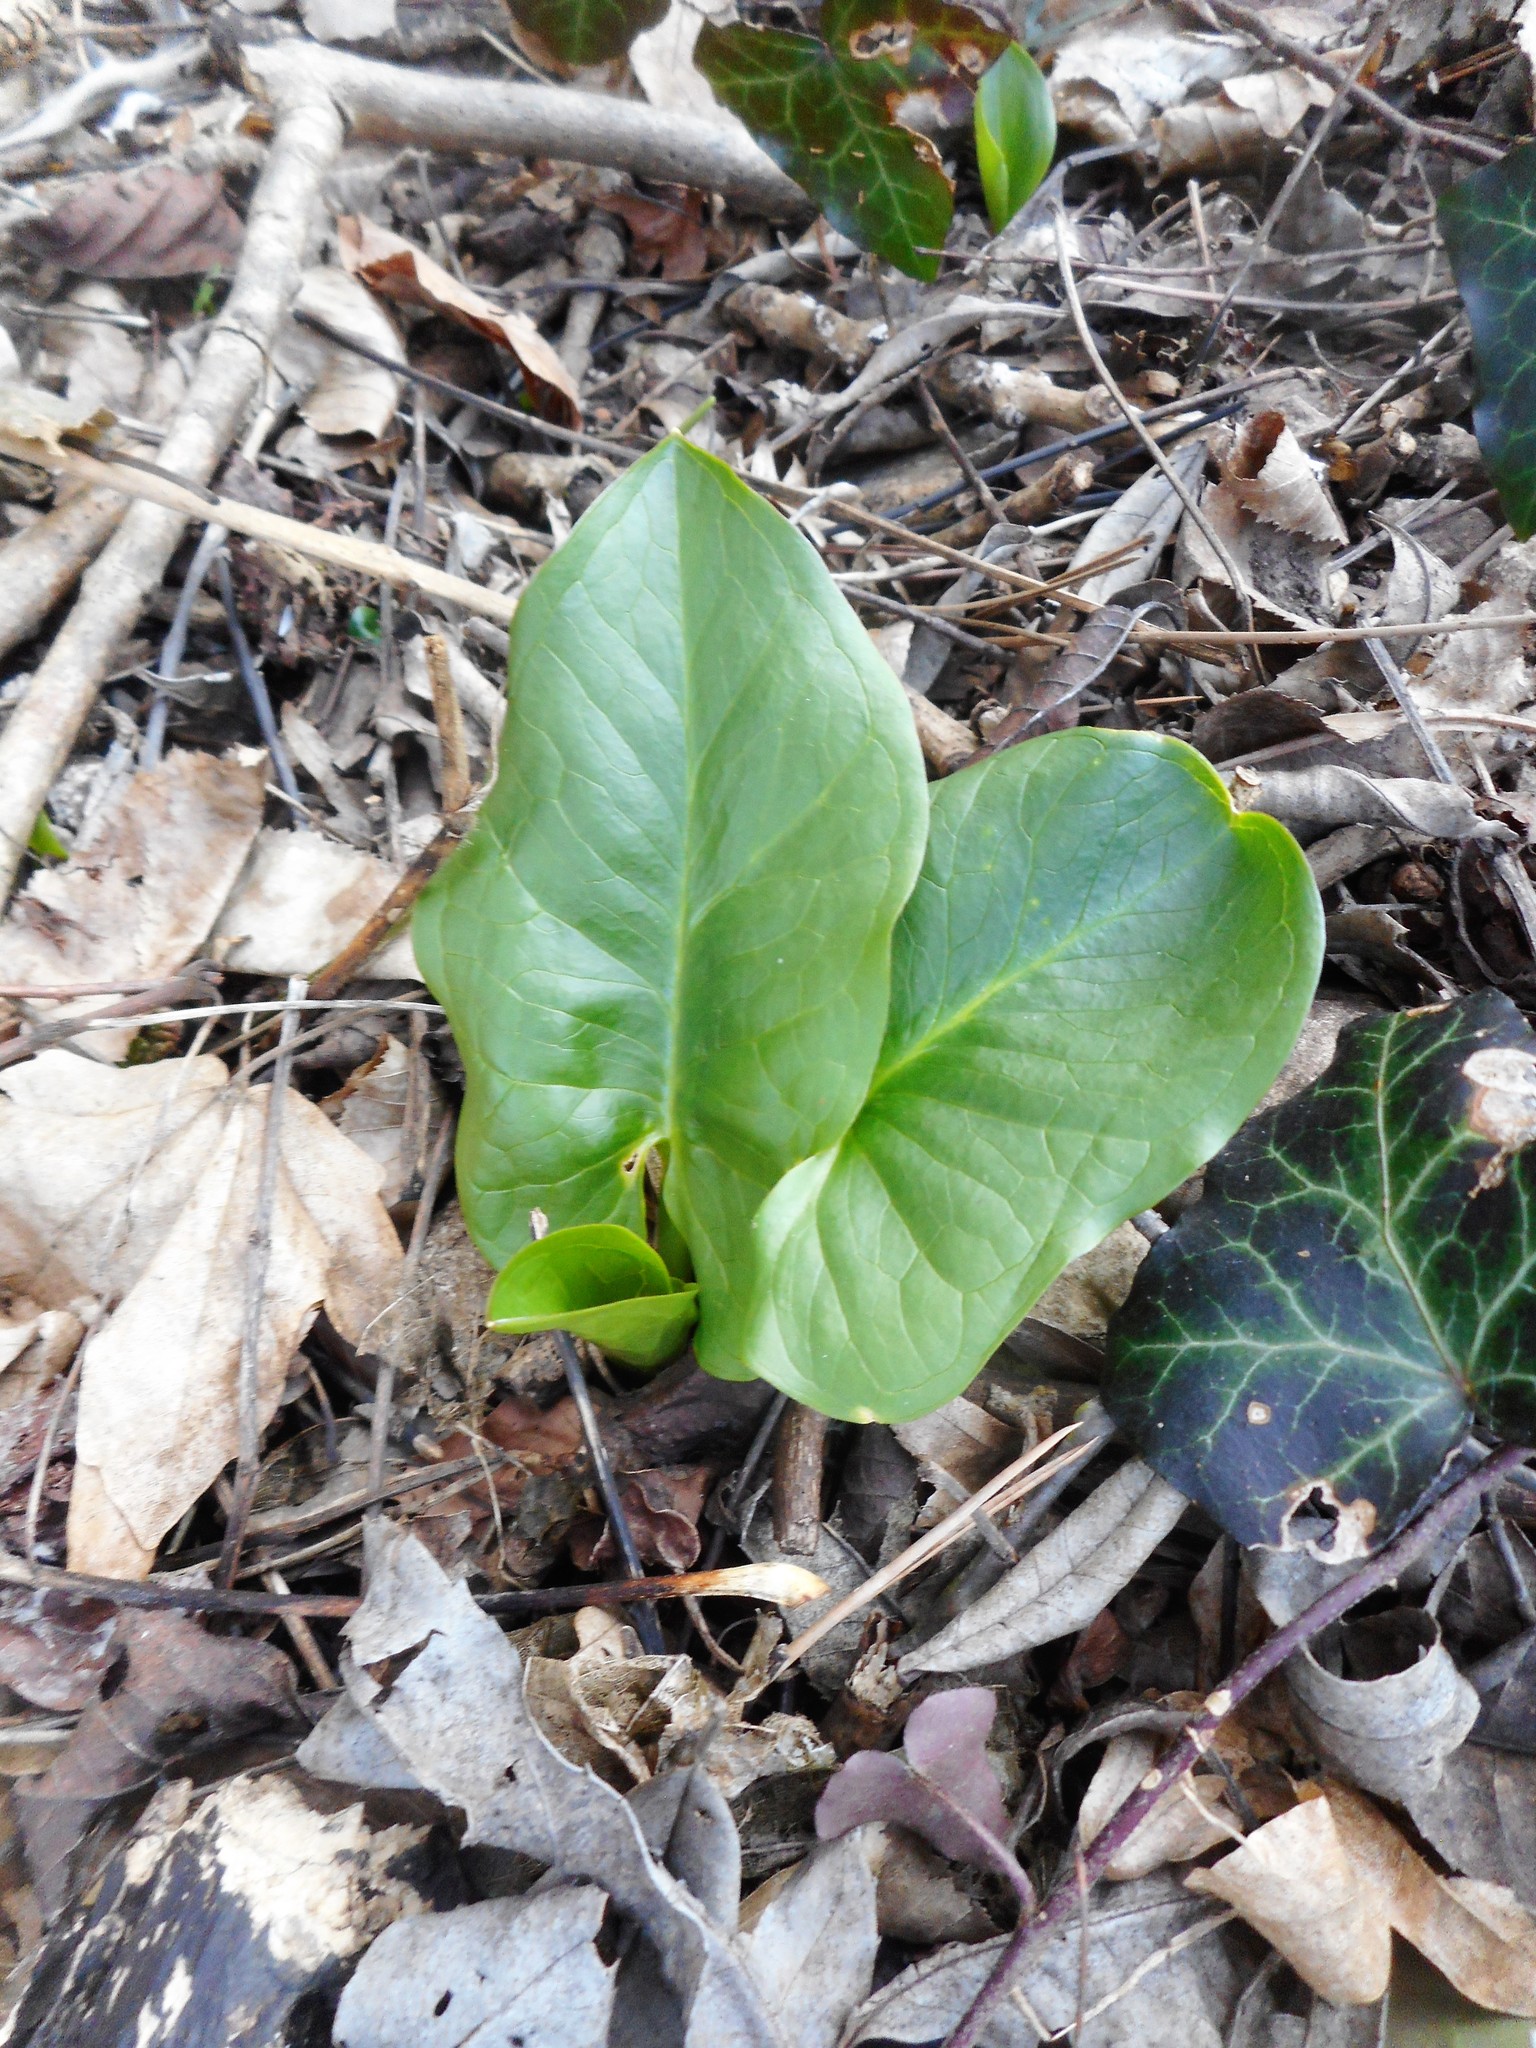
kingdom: Plantae
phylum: Tracheophyta
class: Liliopsida
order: Alismatales
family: Araceae
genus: Arum
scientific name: Arum cylindraceum
